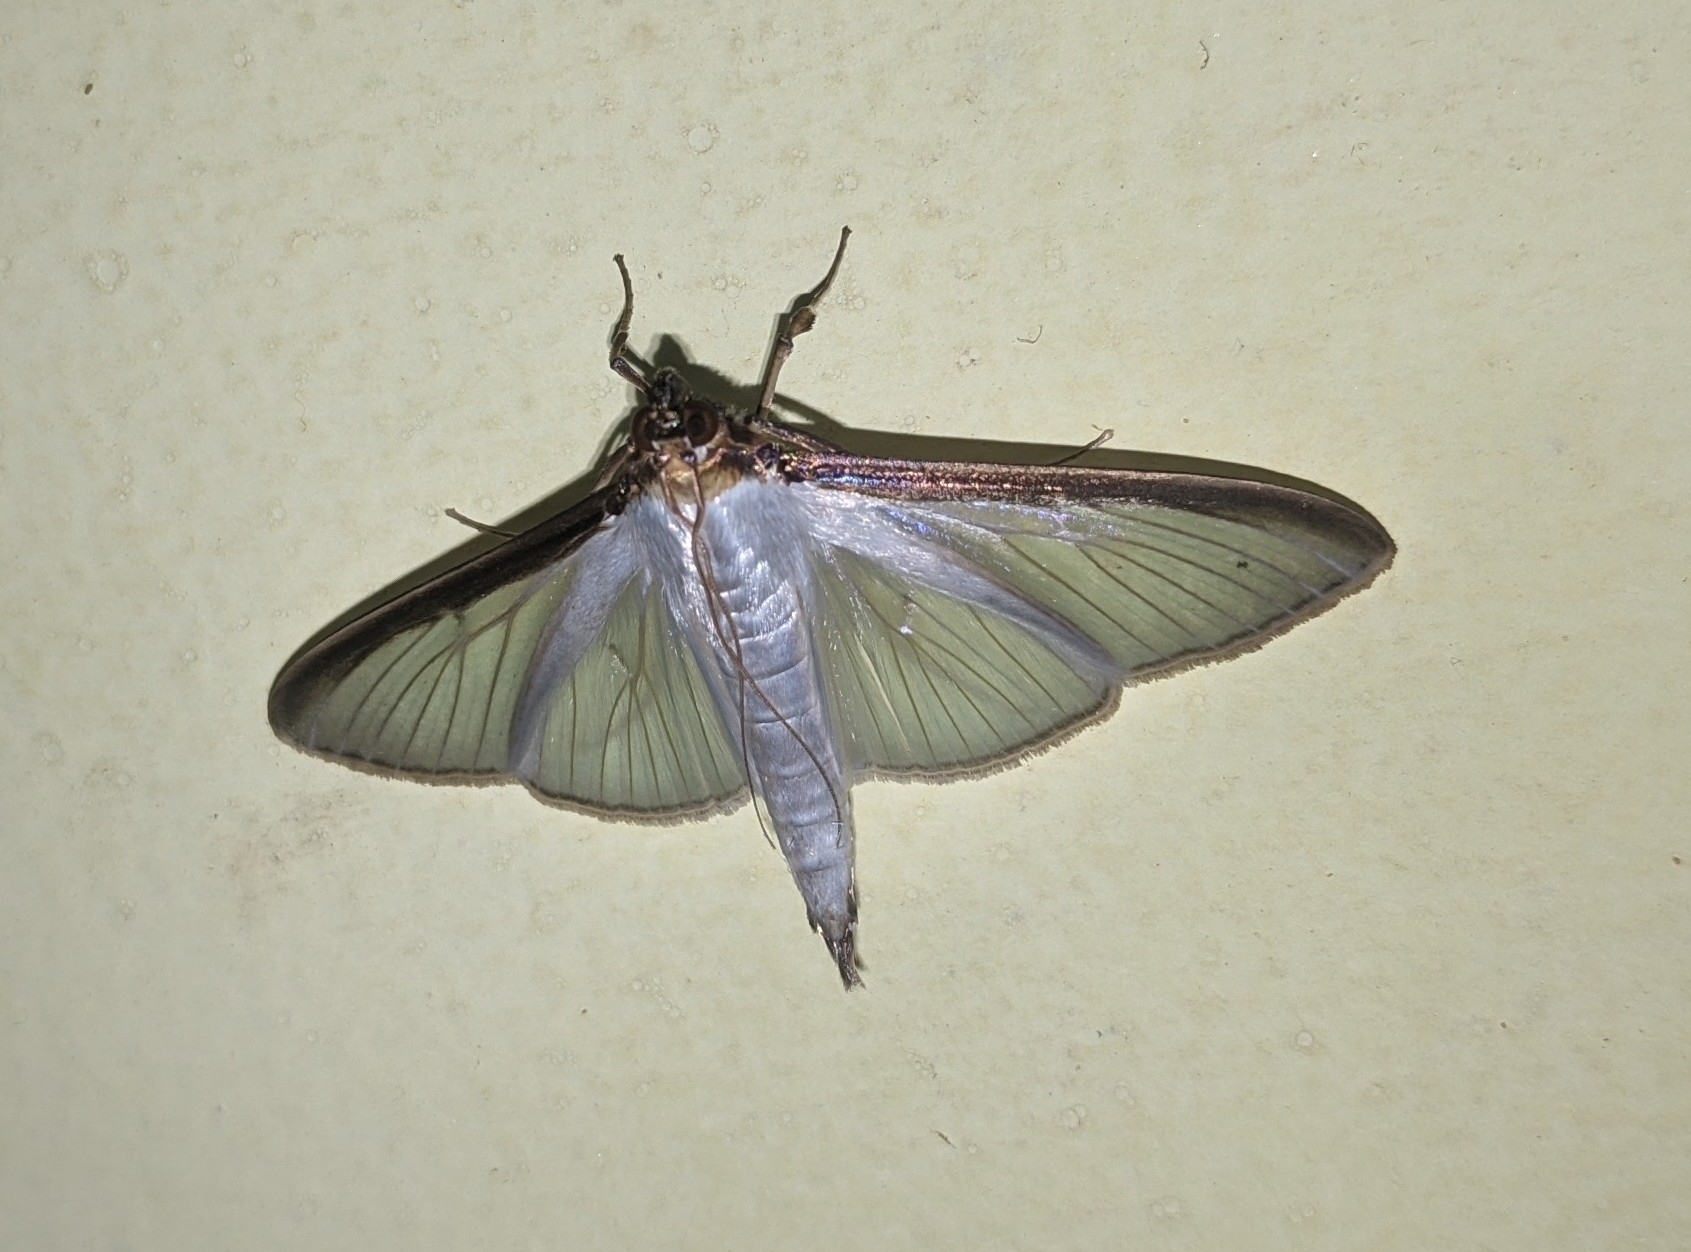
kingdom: Animalia
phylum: Arthropoda
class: Insecta
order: Lepidoptera
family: Crambidae
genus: Cydalima
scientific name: Cydalima laticostalis
